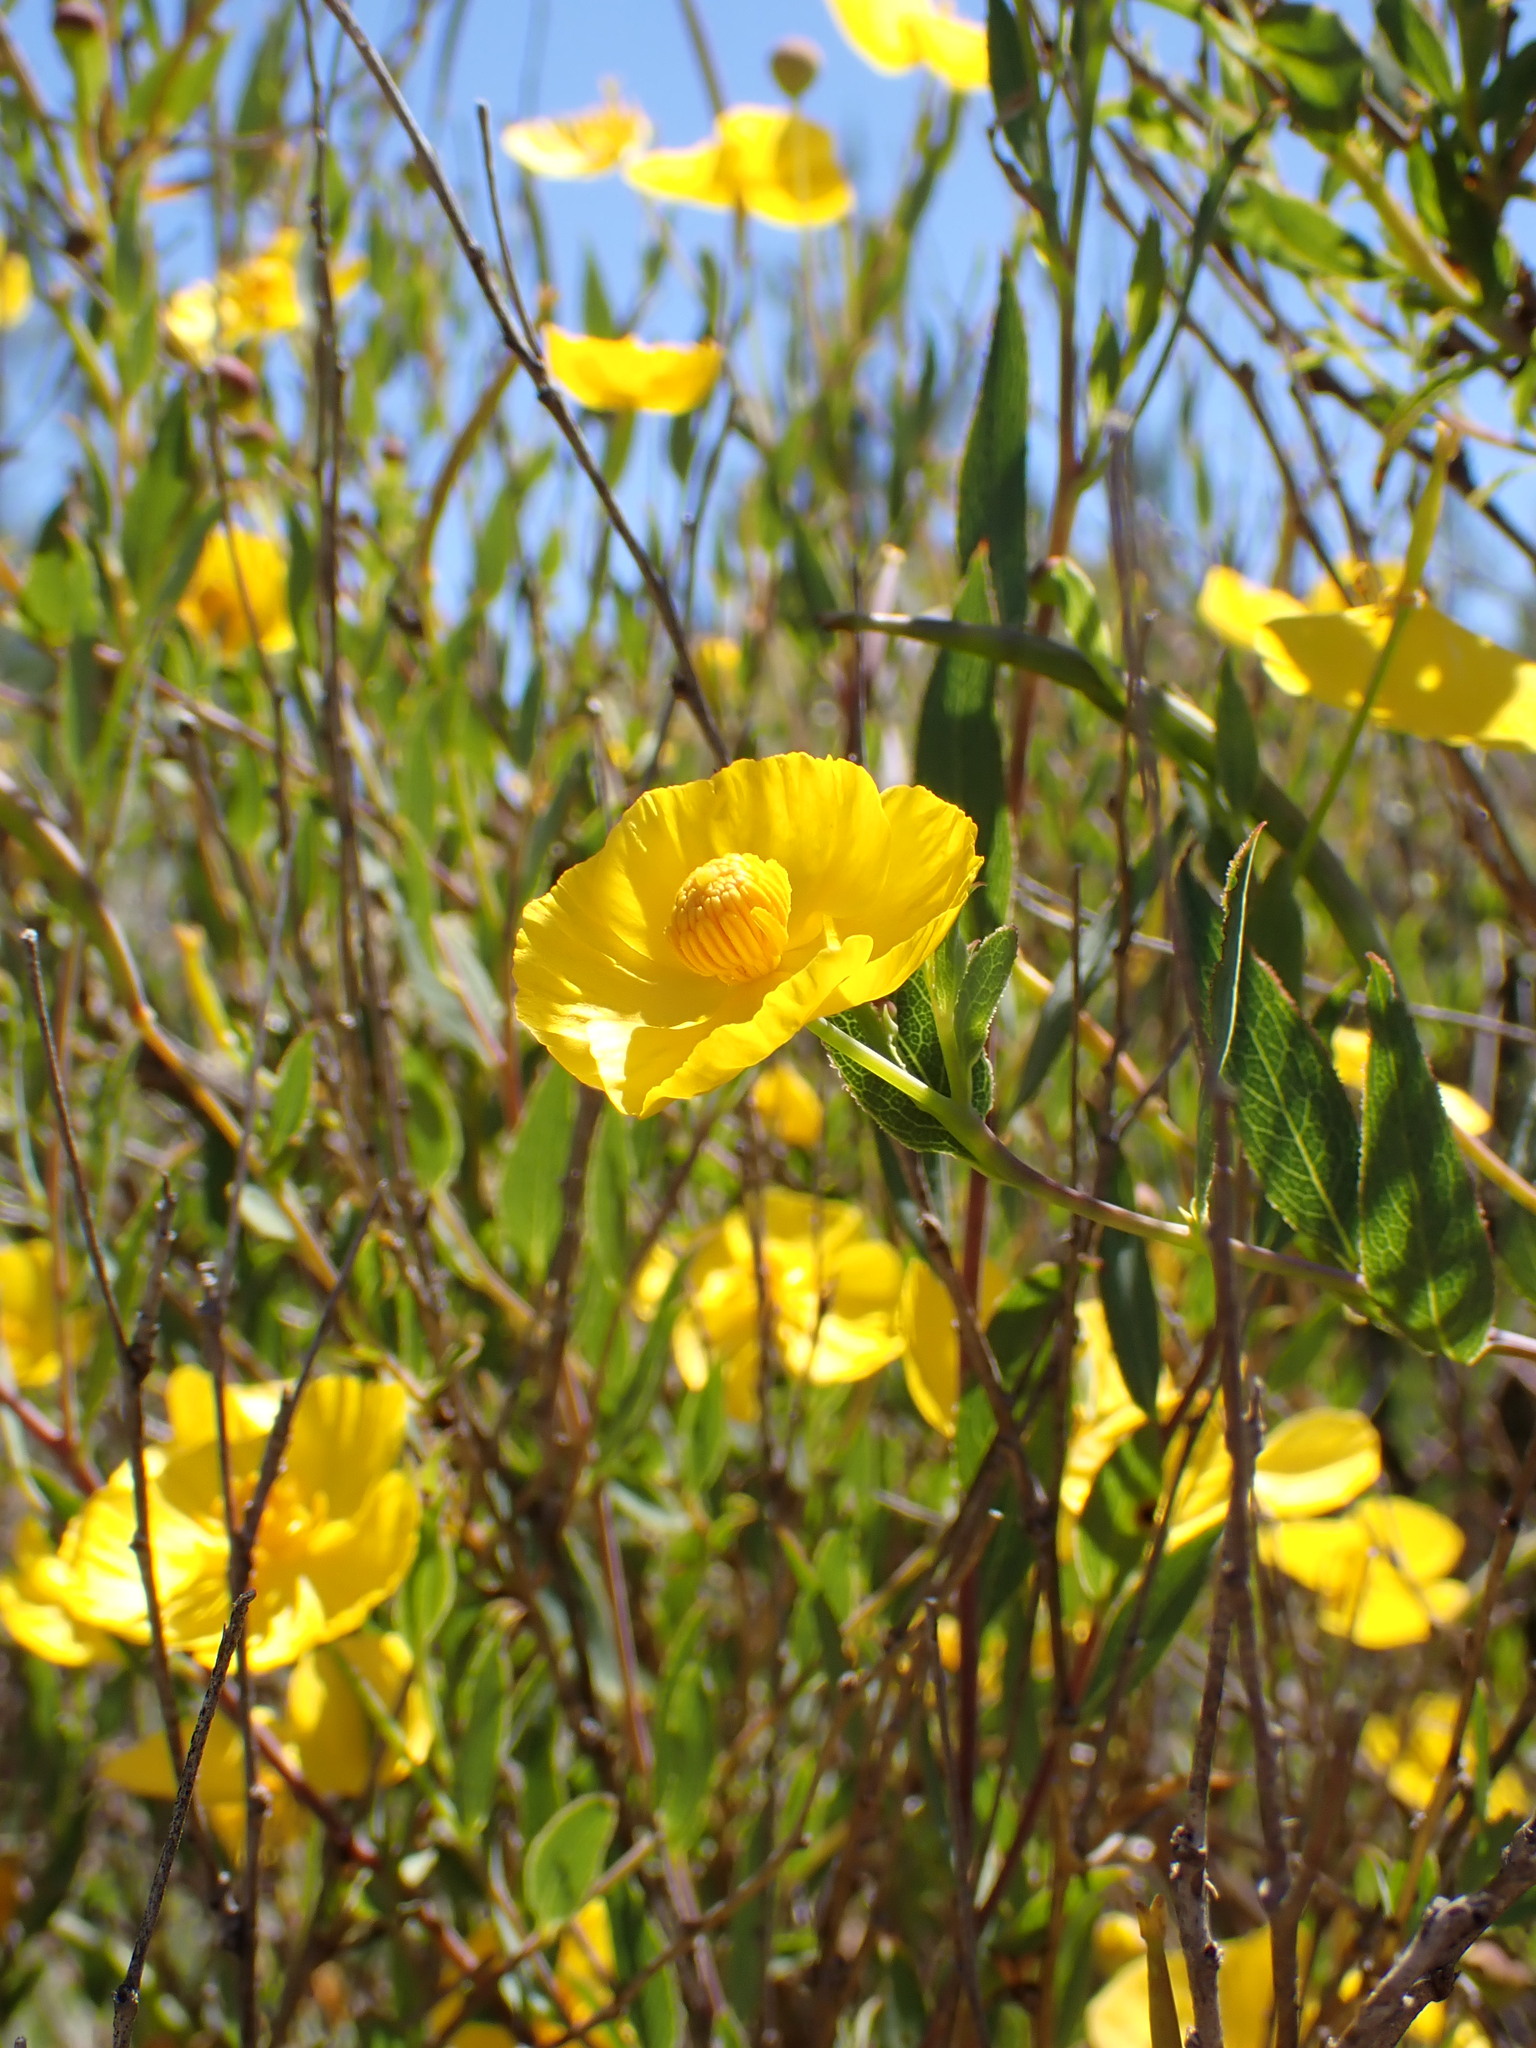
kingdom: Plantae
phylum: Tracheophyta
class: Magnoliopsida
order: Ranunculales
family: Papaveraceae
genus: Dendromecon
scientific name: Dendromecon rigida
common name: Tree poppy
